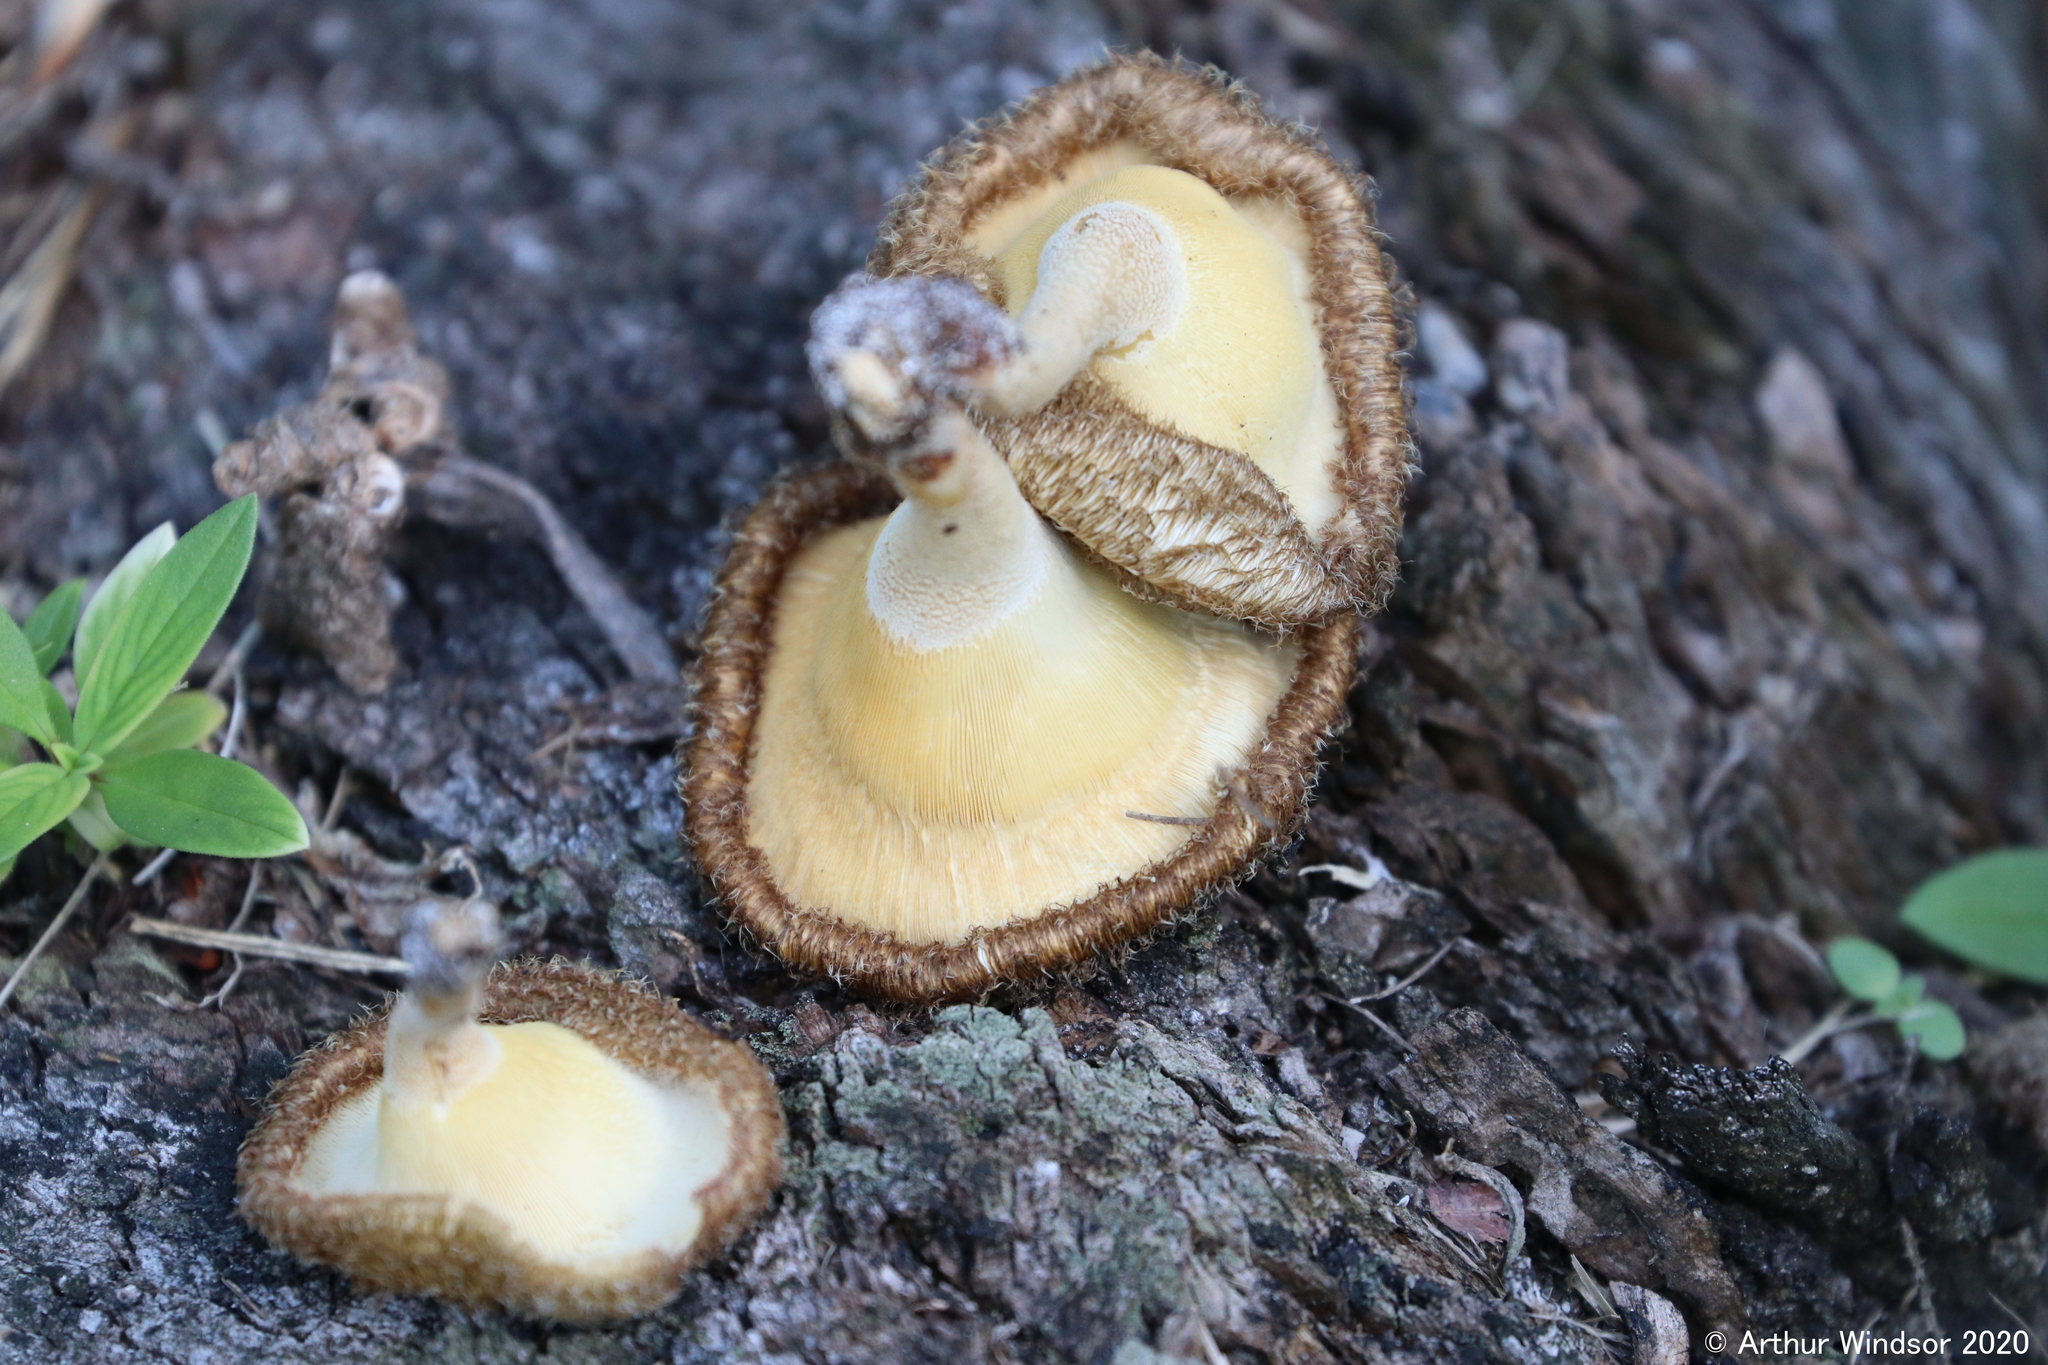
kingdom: Fungi
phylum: Basidiomycota
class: Agaricomycetes
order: Polyporales
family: Polyporaceae
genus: Lentinus
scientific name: Lentinus crinitus
